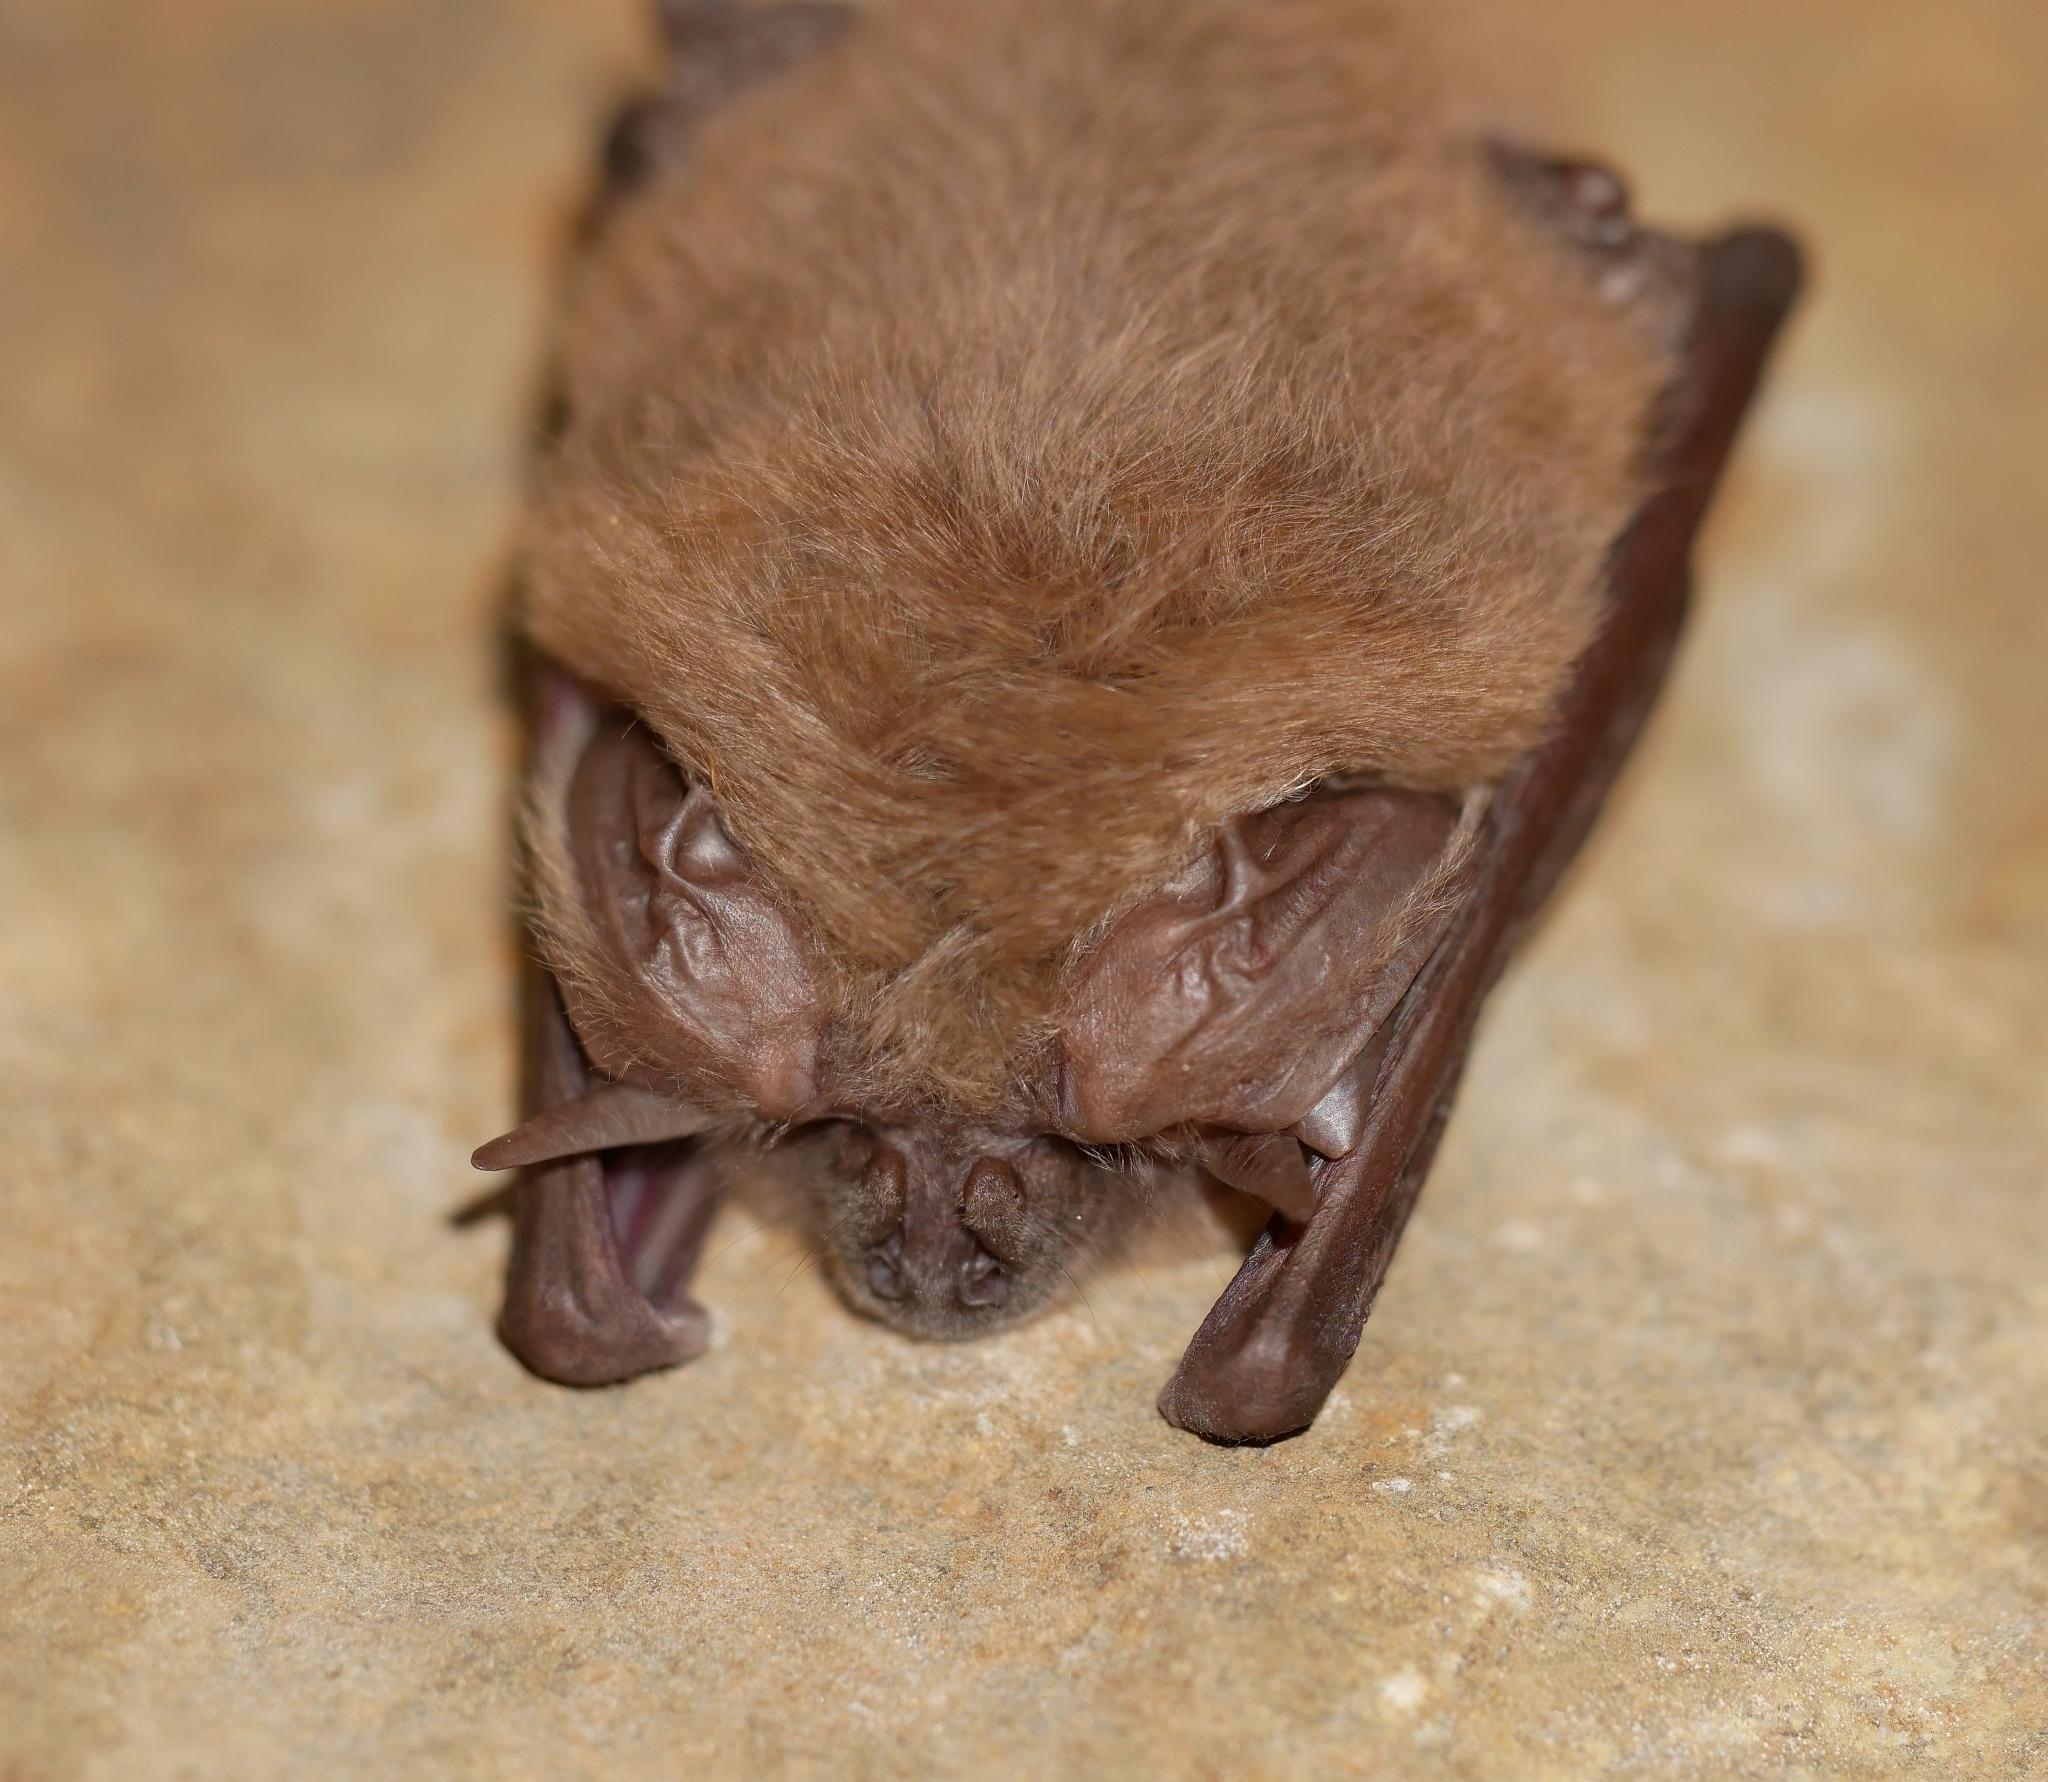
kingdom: Animalia
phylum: Chordata
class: Mammalia
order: Chiroptera
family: Vespertilionidae
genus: Corynorhinus
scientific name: Corynorhinus townsendii
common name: Townsend's big-eared bat
